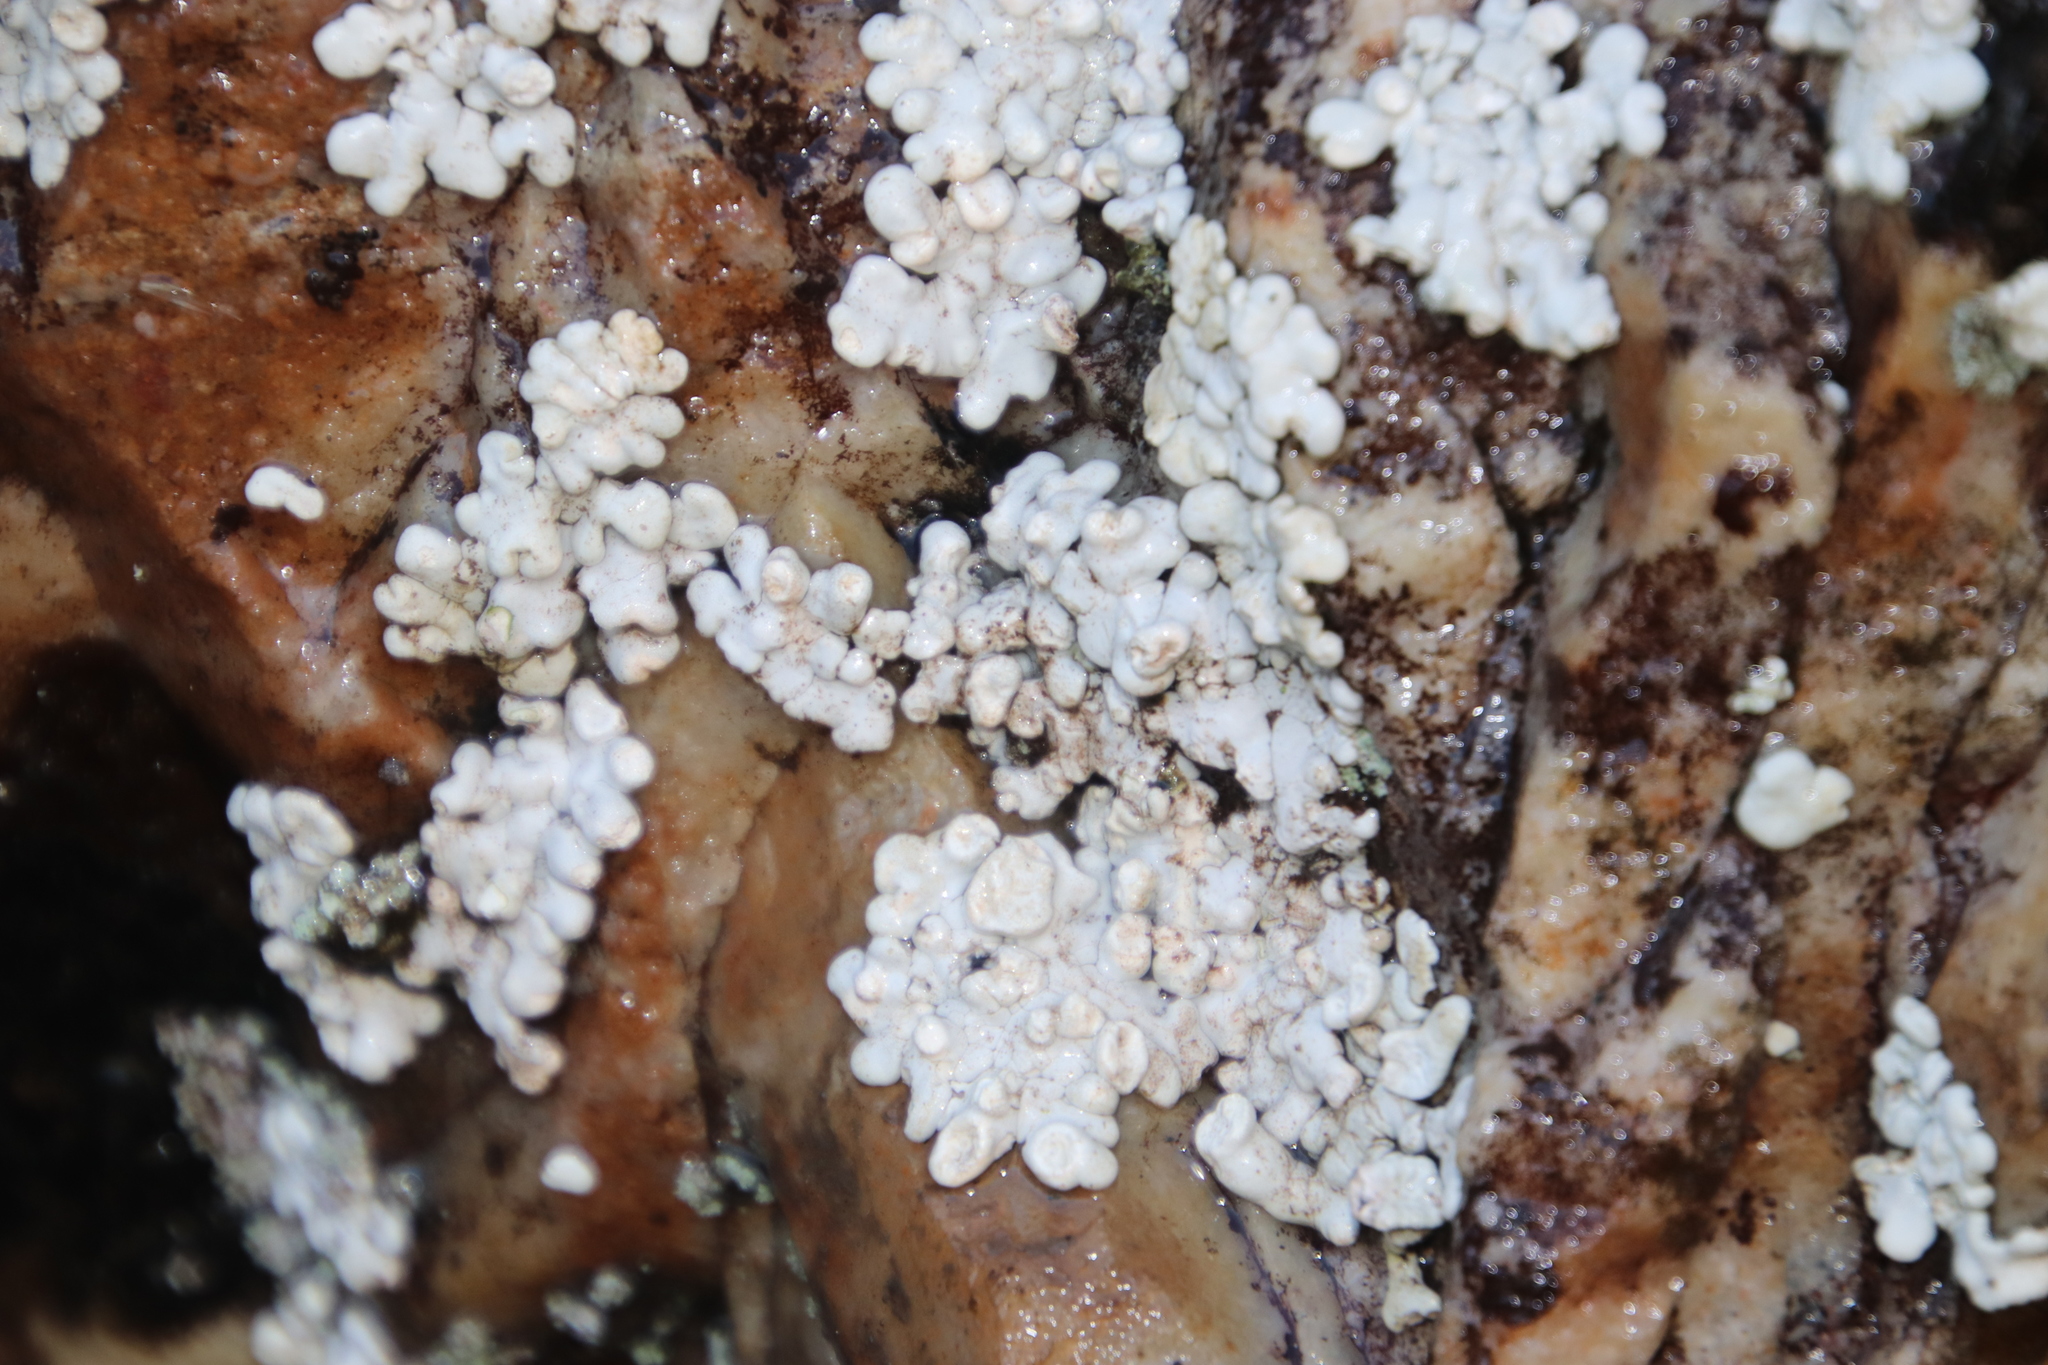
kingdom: Fungi
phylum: Ascomycota
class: Lecanoromycetes
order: Pertusariales
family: Icmadophilaceae
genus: Siphula
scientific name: Siphula verrucigera
